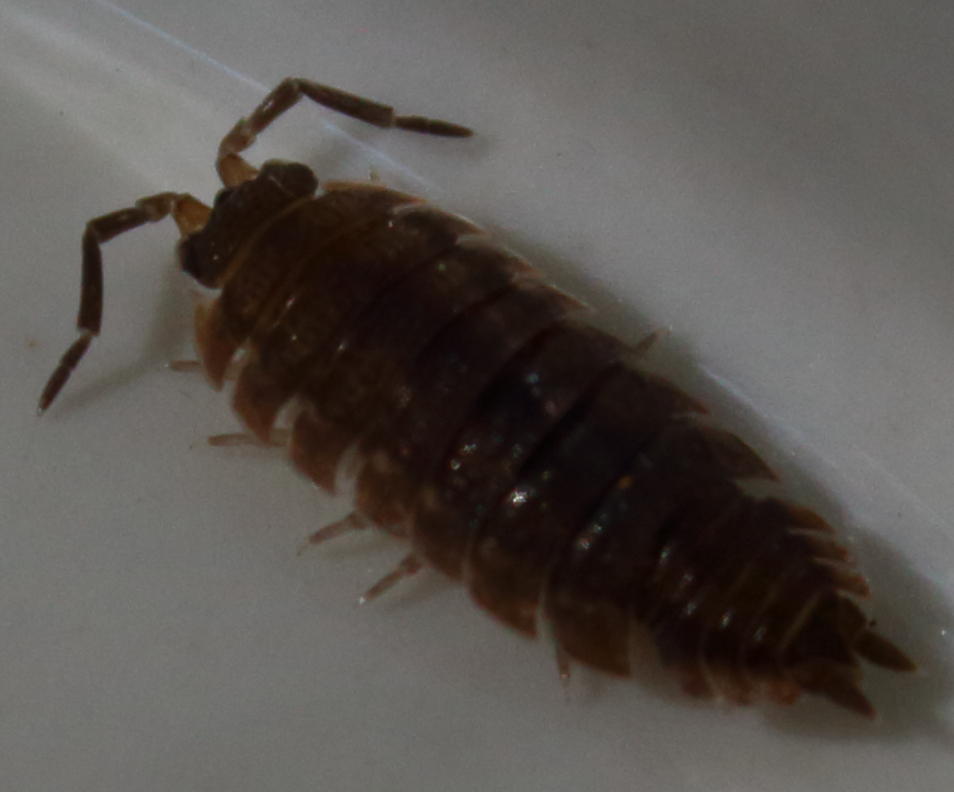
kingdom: Animalia
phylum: Arthropoda
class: Malacostraca
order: Isopoda
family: Porcellionidae
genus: Porcellio
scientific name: Porcellio scaber
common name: Common rough woodlouse
